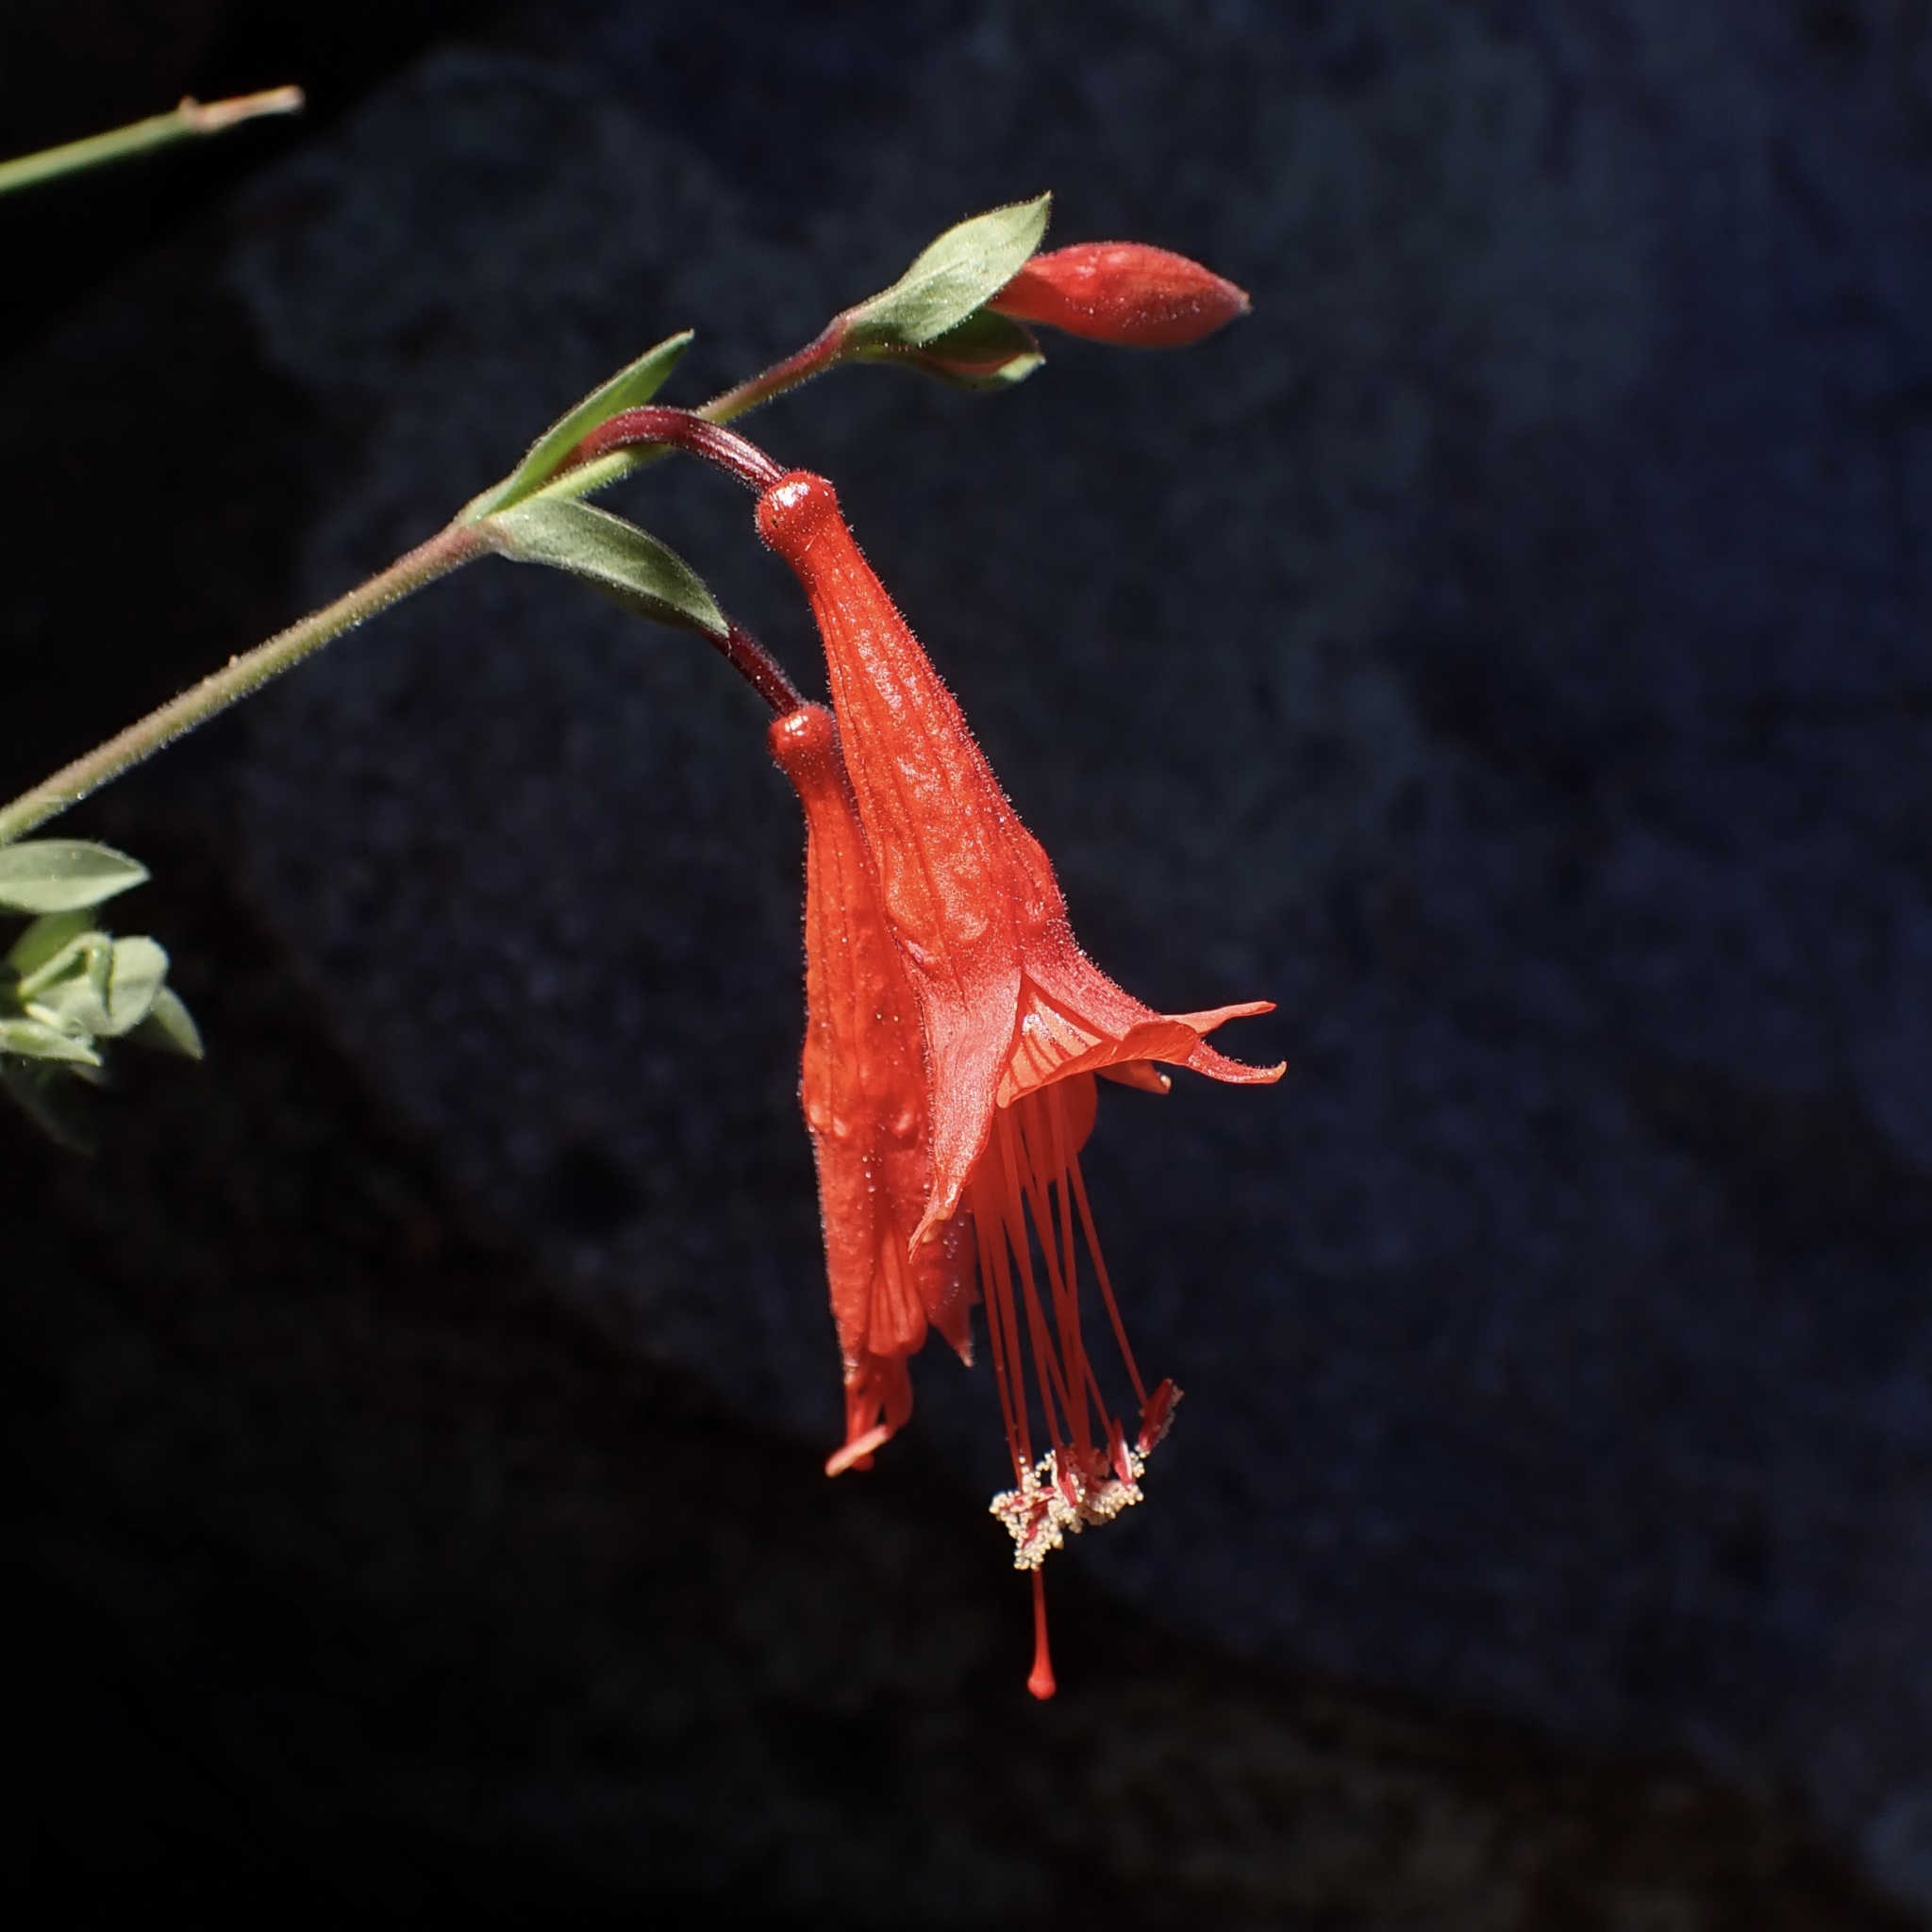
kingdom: Plantae
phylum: Tracheophyta
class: Magnoliopsida
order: Myrtales
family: Onagraceae
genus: Epilobium
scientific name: Epilobium canum
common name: California-fuchsia
